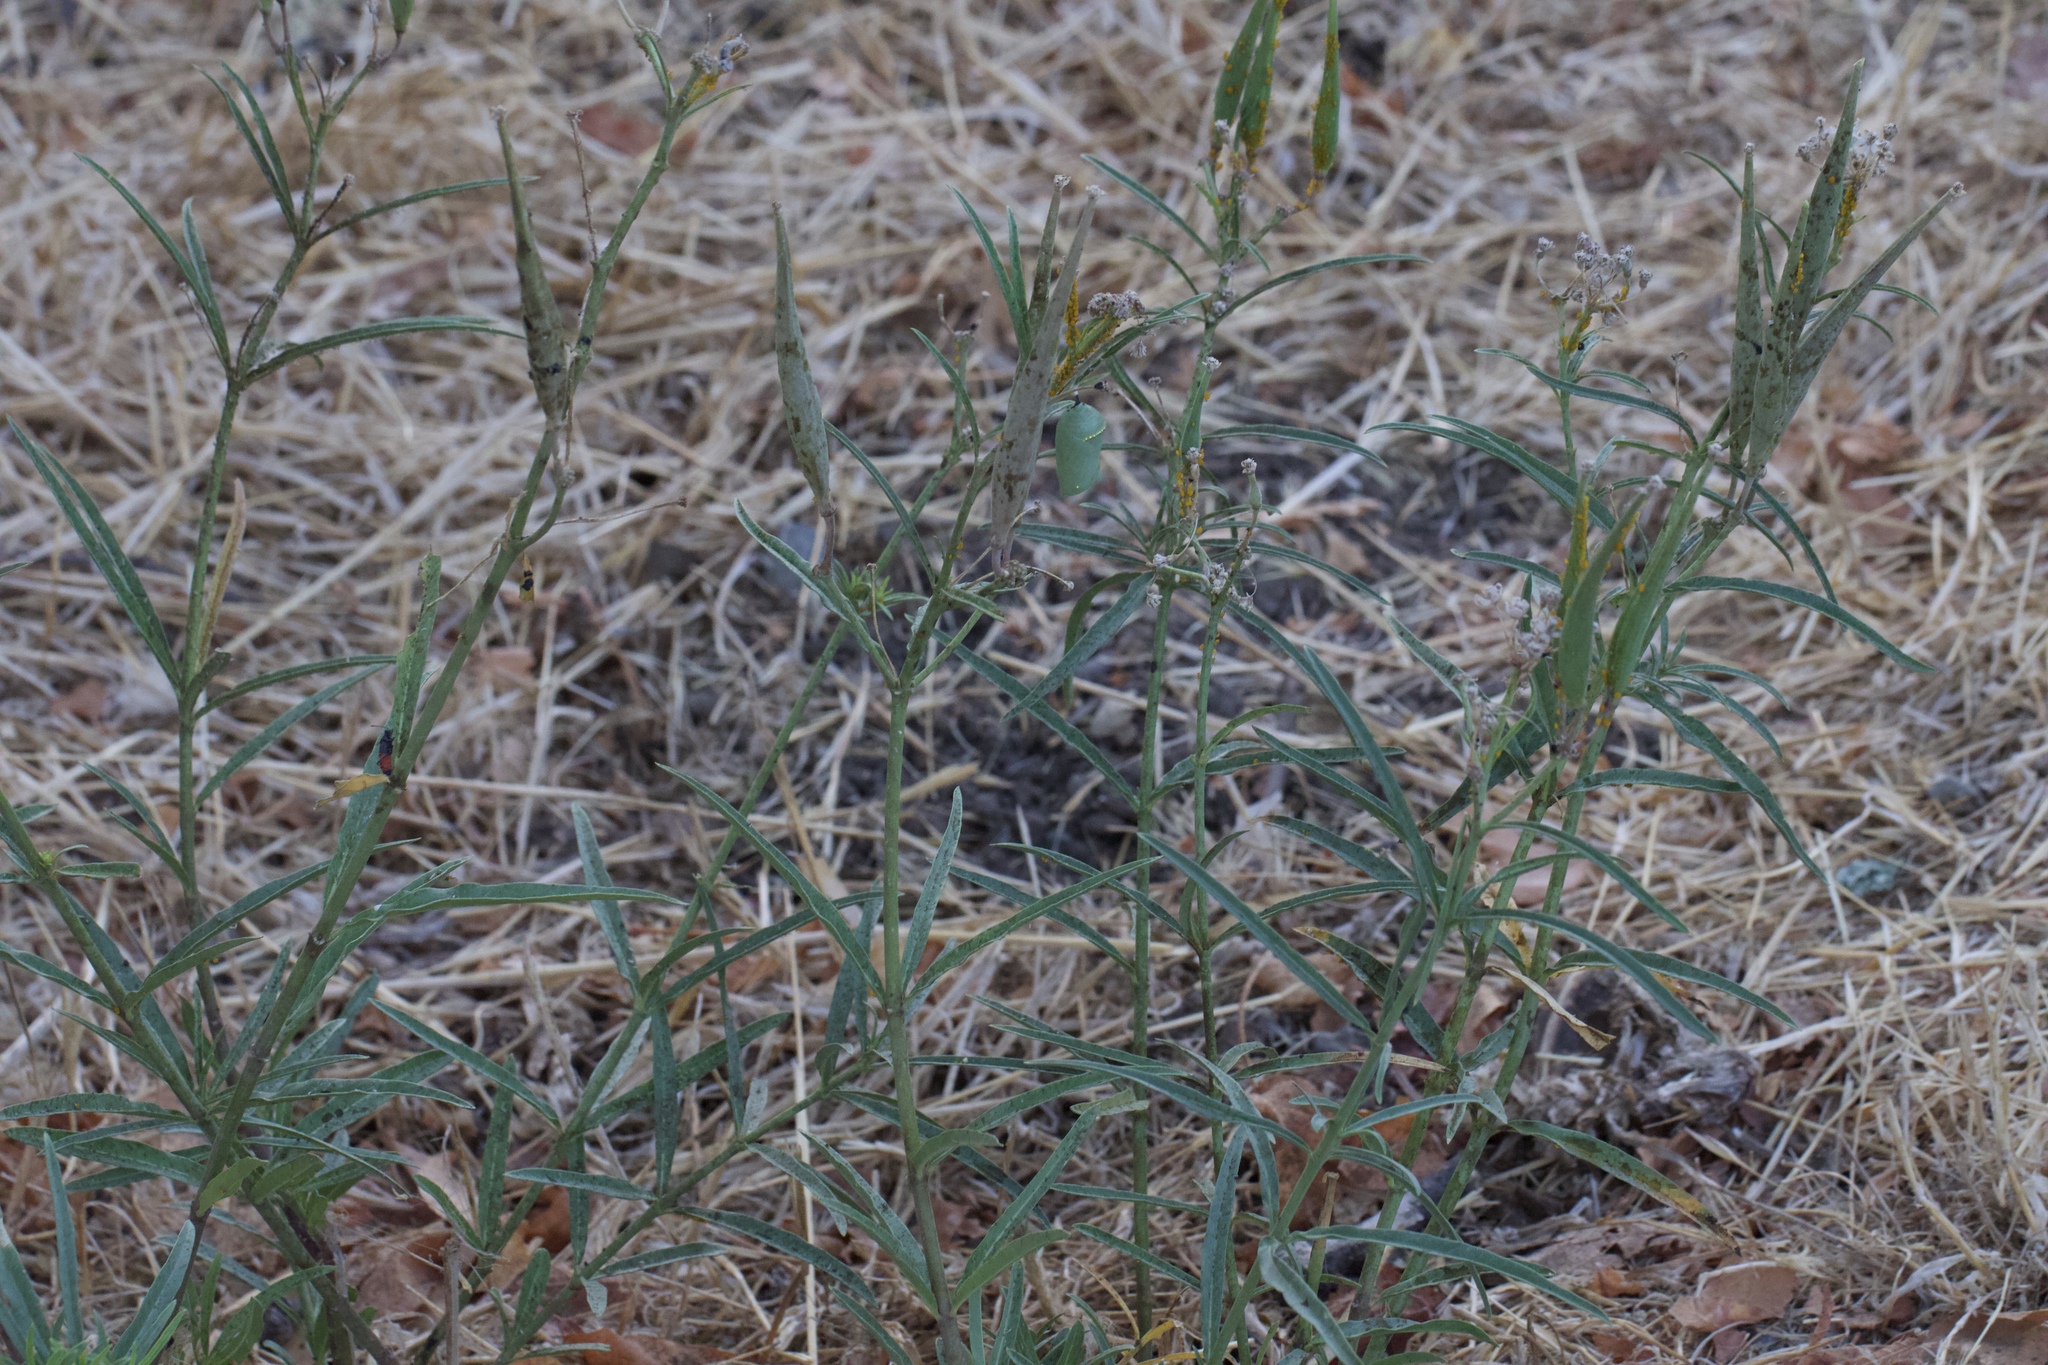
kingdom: Plantae
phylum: Tracheophyta
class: Magnoliopsida
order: Gentianales
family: Apocynaceae
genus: Asclepias
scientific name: Asclepias fascicularis
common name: Mexican milkweed
